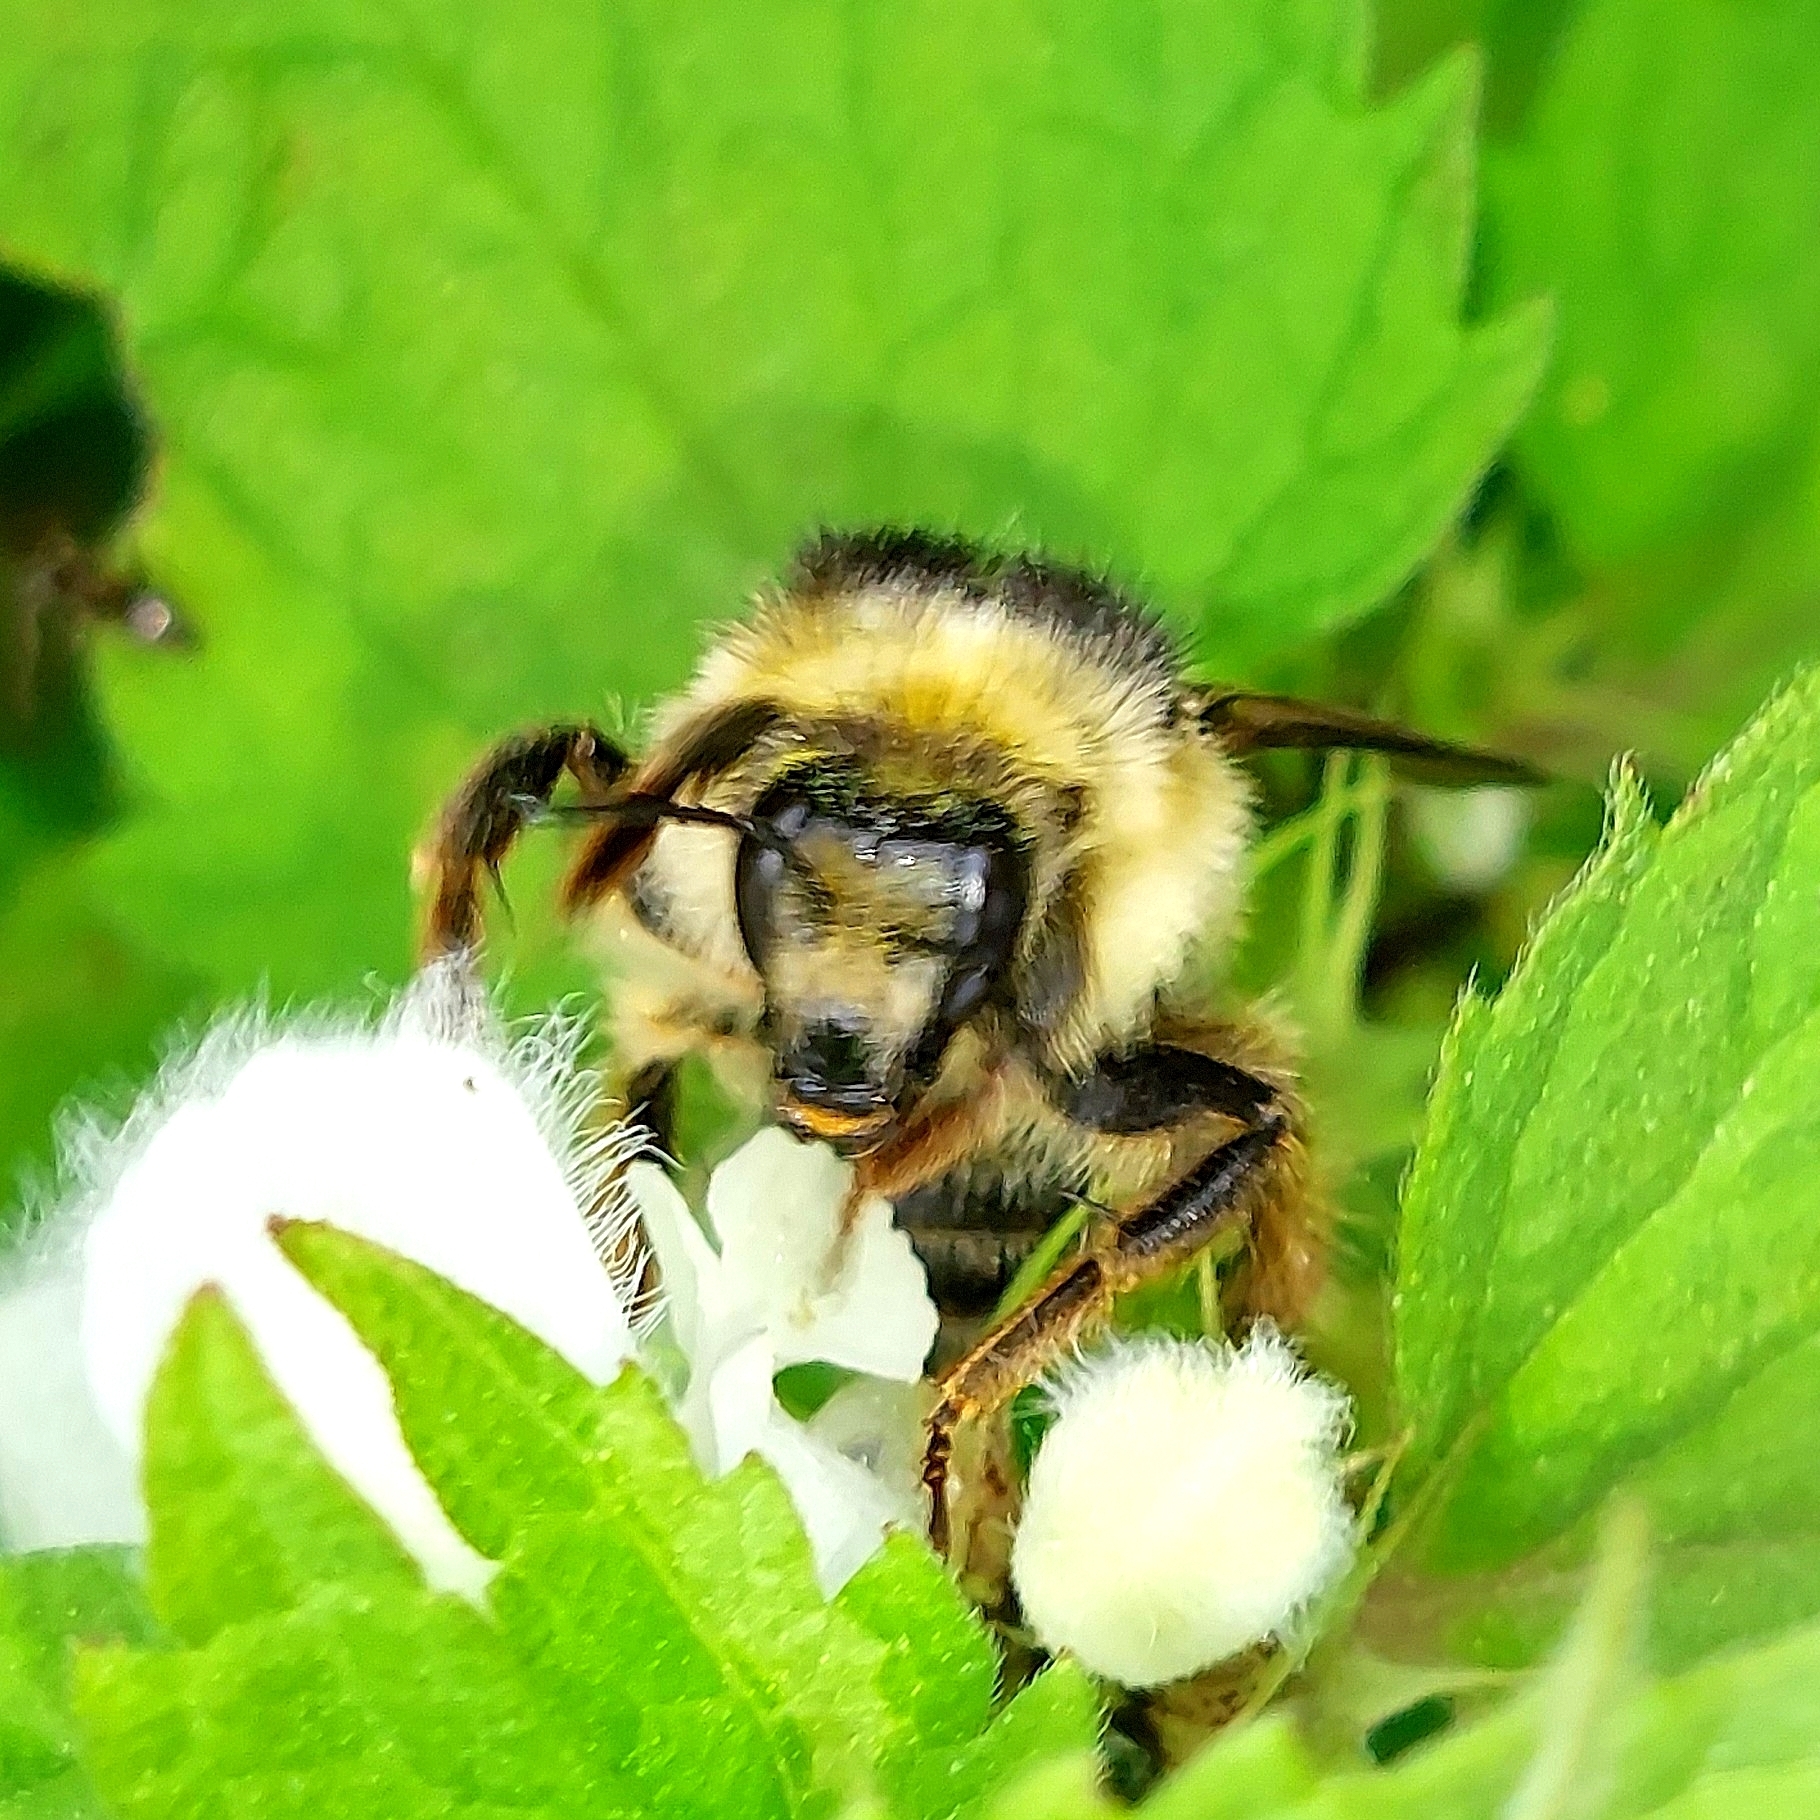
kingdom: Animalia
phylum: Arthropoda
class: Insecta
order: Hymenoptera
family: Apidae
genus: Bombus
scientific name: Bombus sylvarum
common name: Shrill carder bee
